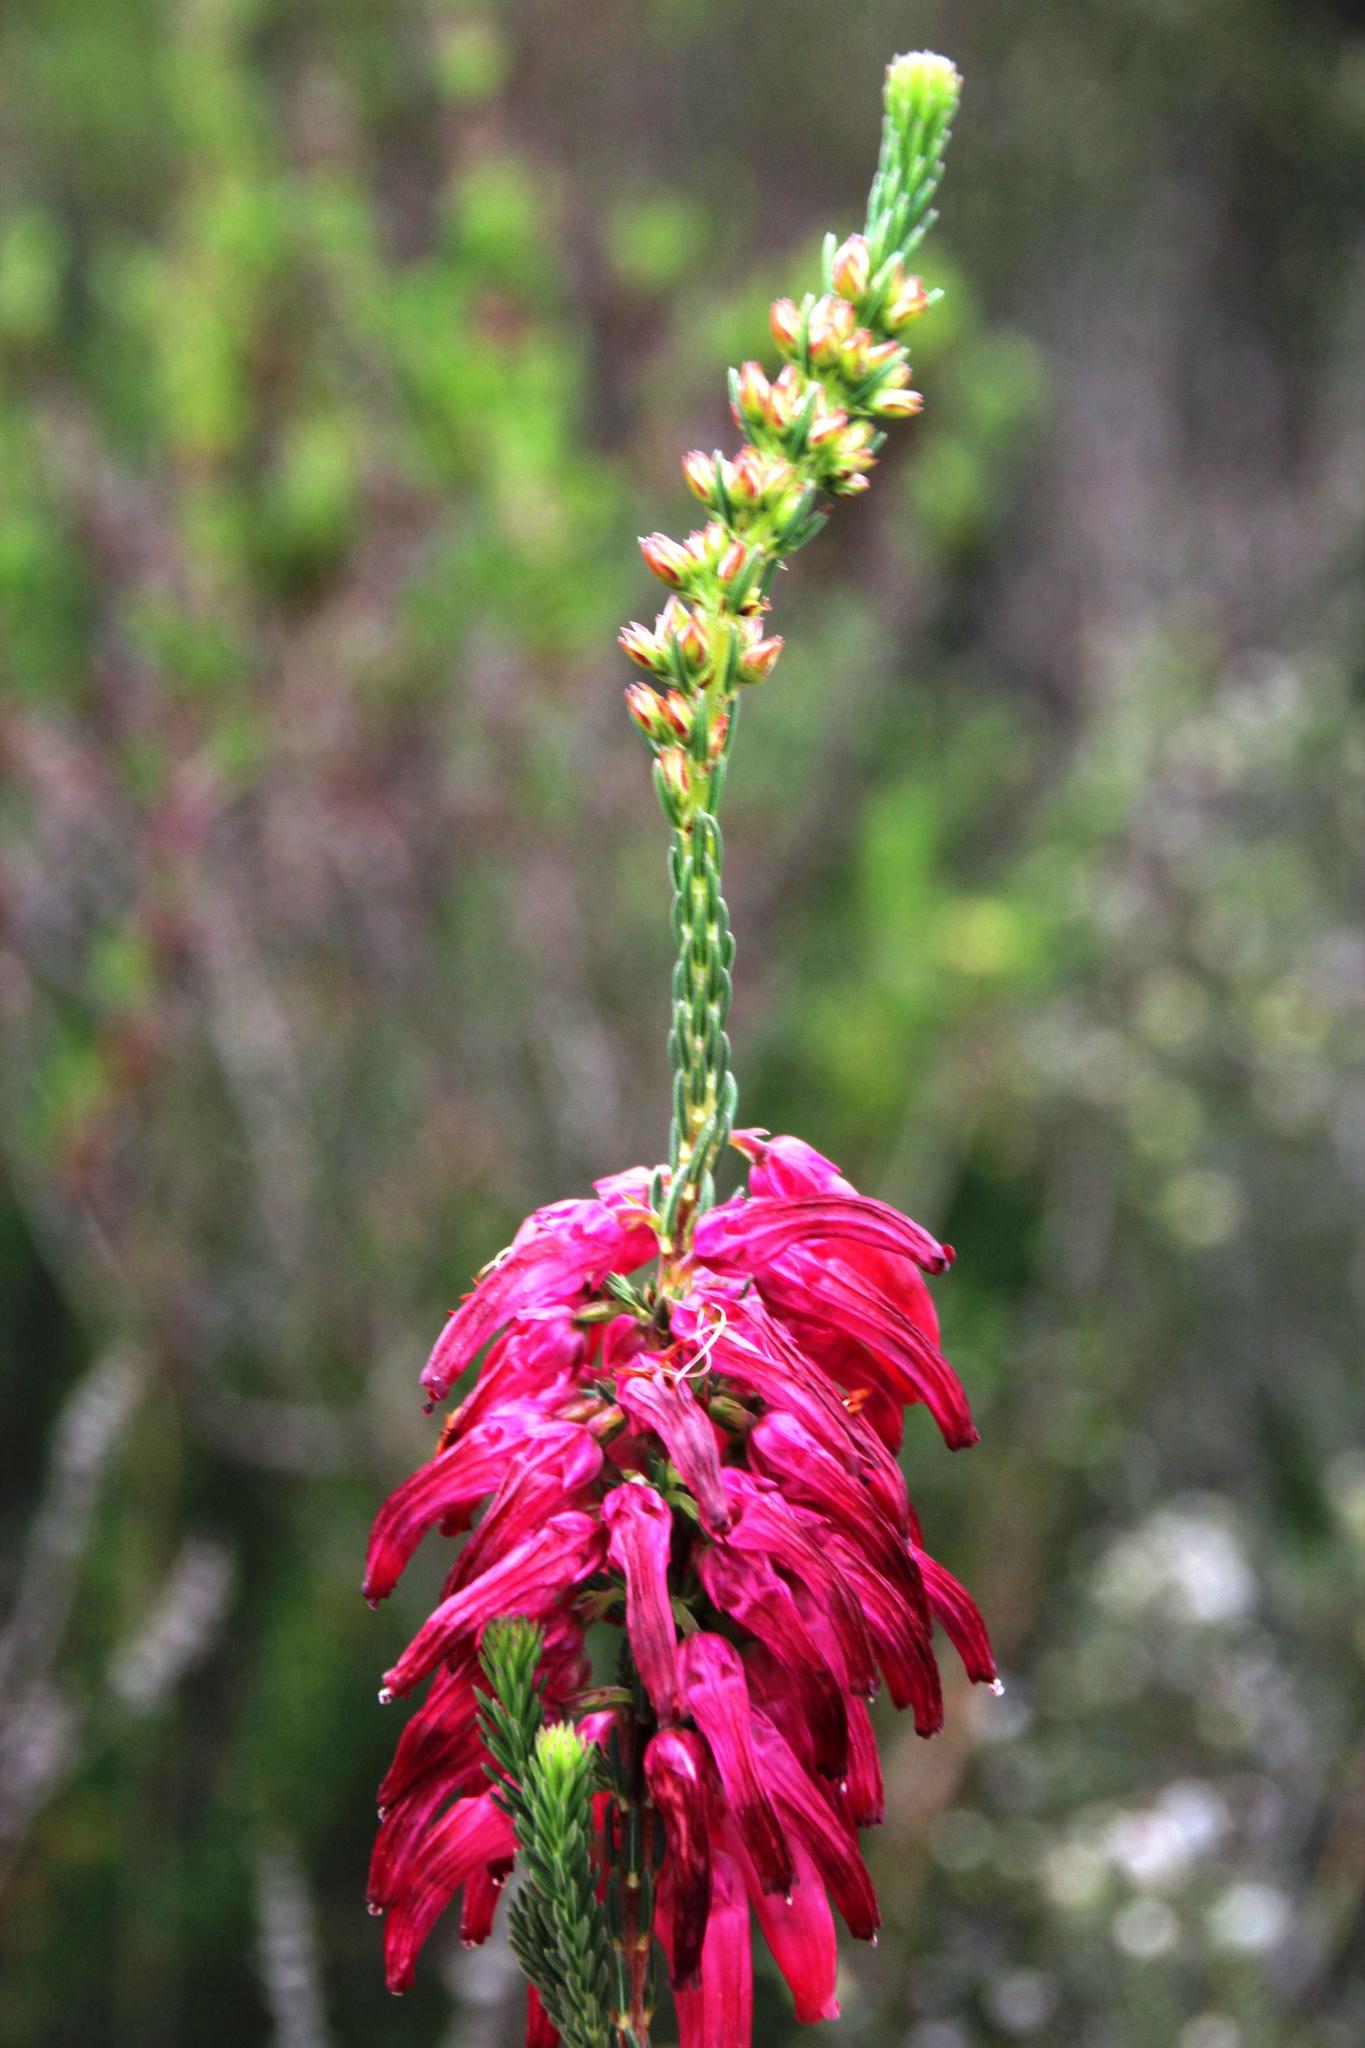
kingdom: Plantae
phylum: Tracheophyta
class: Magnoliopsida
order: Ericales
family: Ericaceae
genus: Erica
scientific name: Erica mammosa
